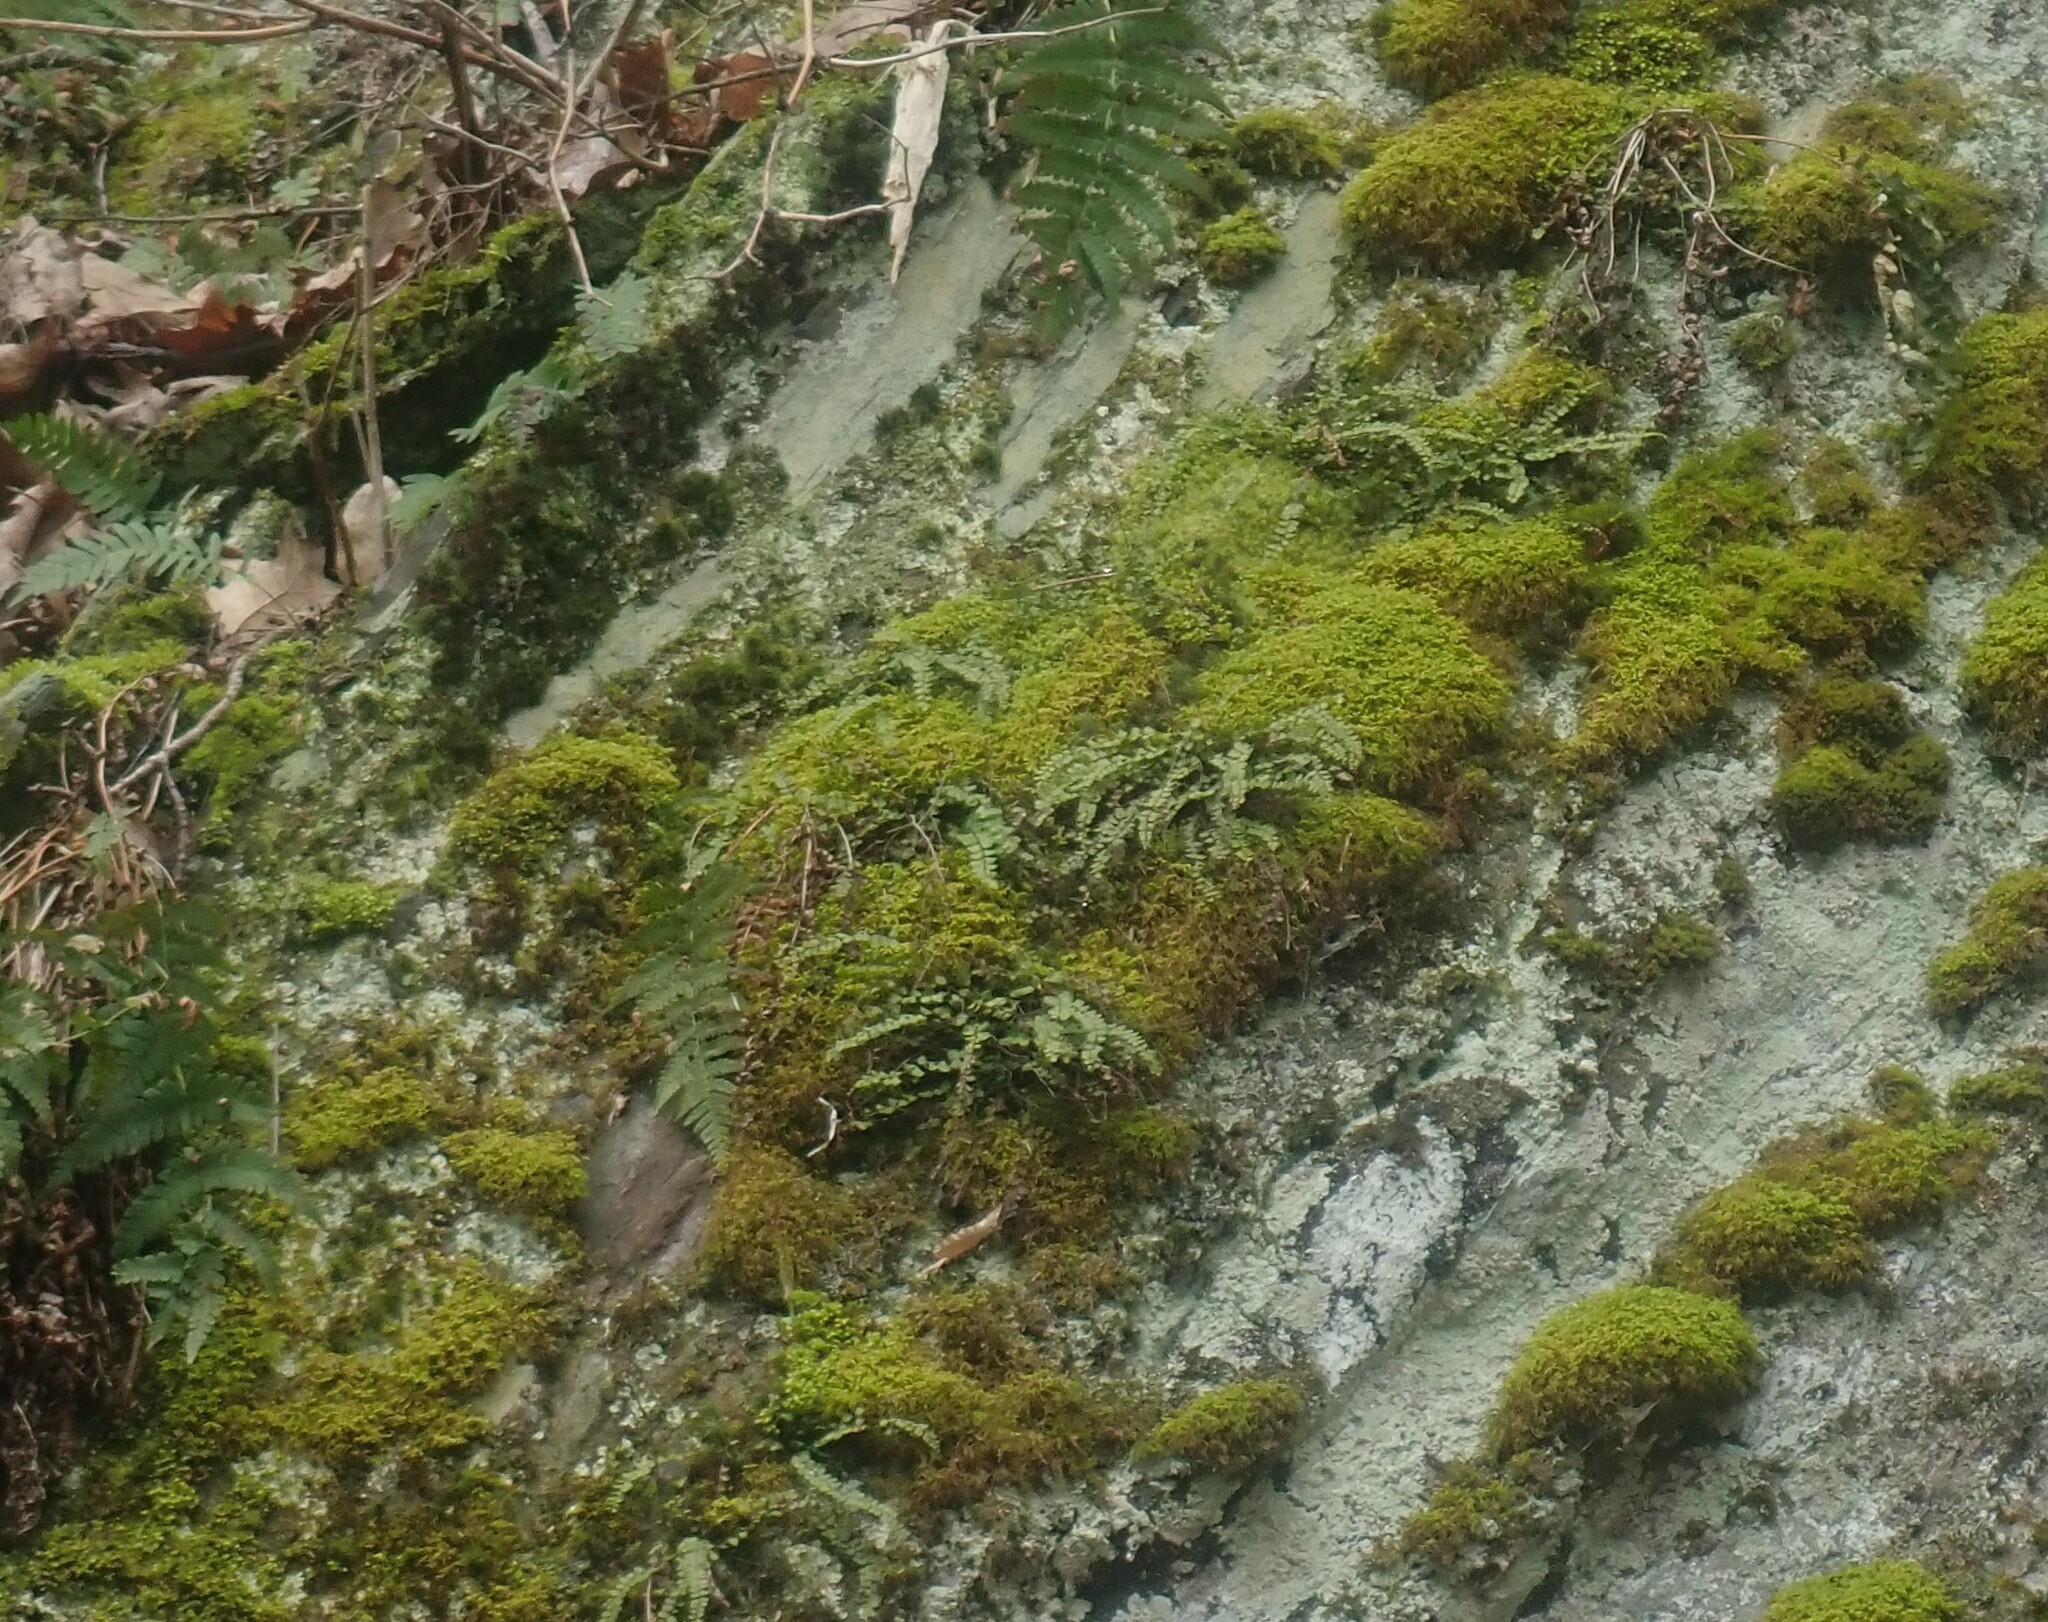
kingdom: Plantae
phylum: Tracheophyta
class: Polypodiopsida
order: Polypodiales
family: Aspleniaceae
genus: Asplenium
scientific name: Asplenium trichomanes
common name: Maidenhair spleenwort
